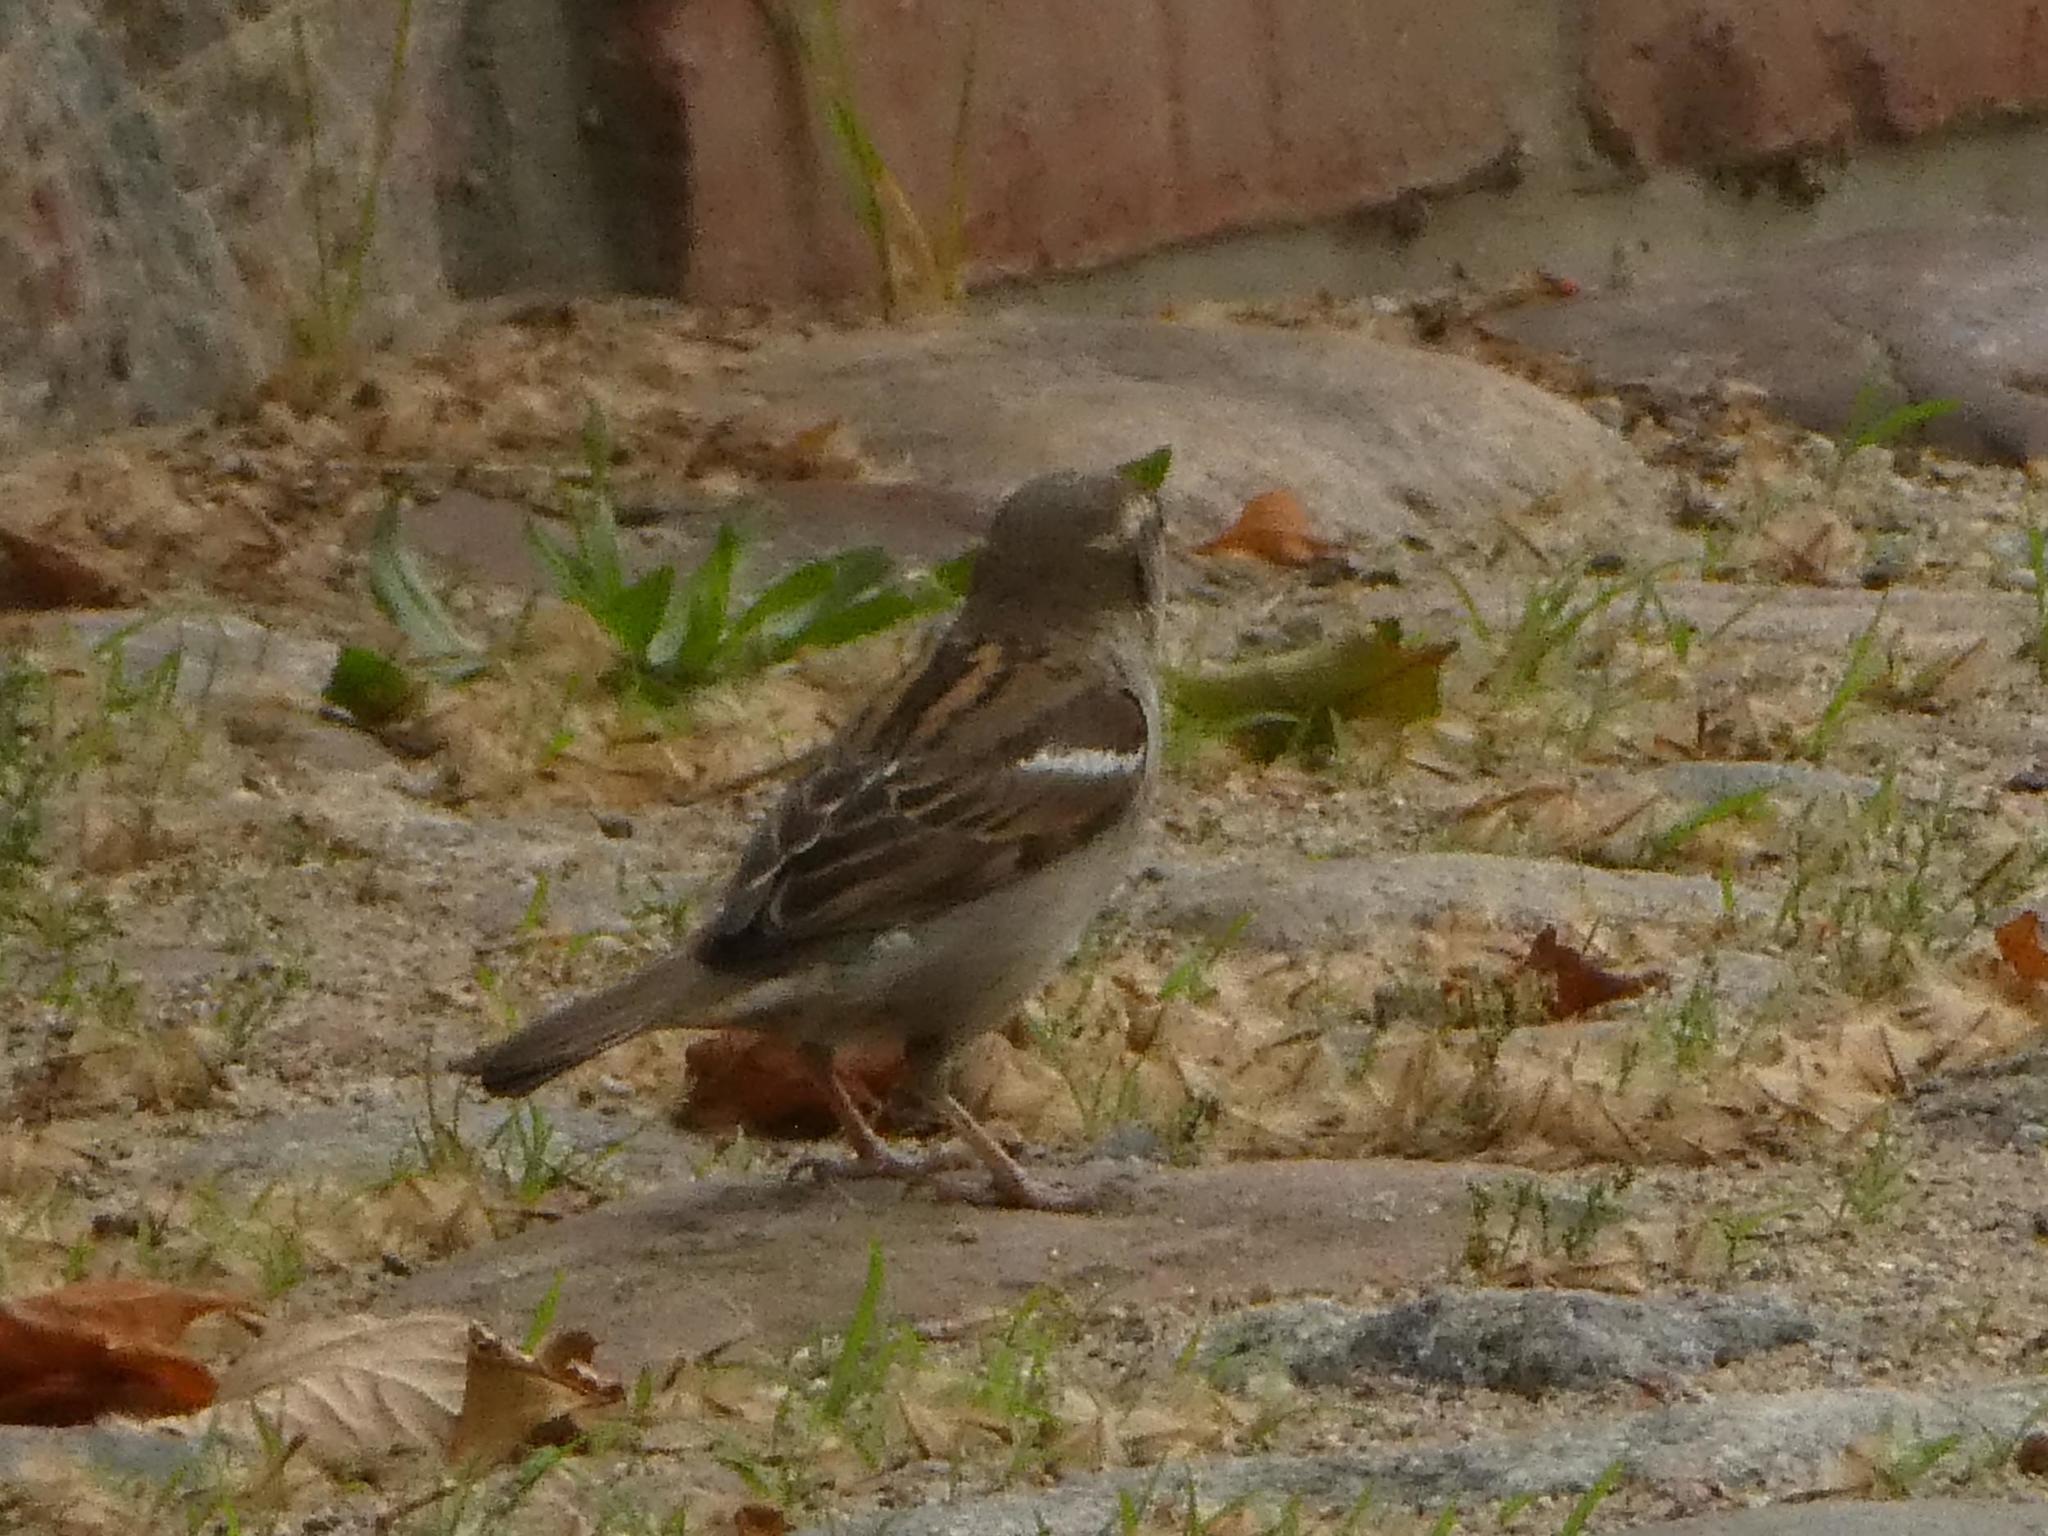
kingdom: Animalia
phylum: Chordata
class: Aves
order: Passeriformes
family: Passeridae
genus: Passer
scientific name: Passer domesticus
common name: House sparrow
